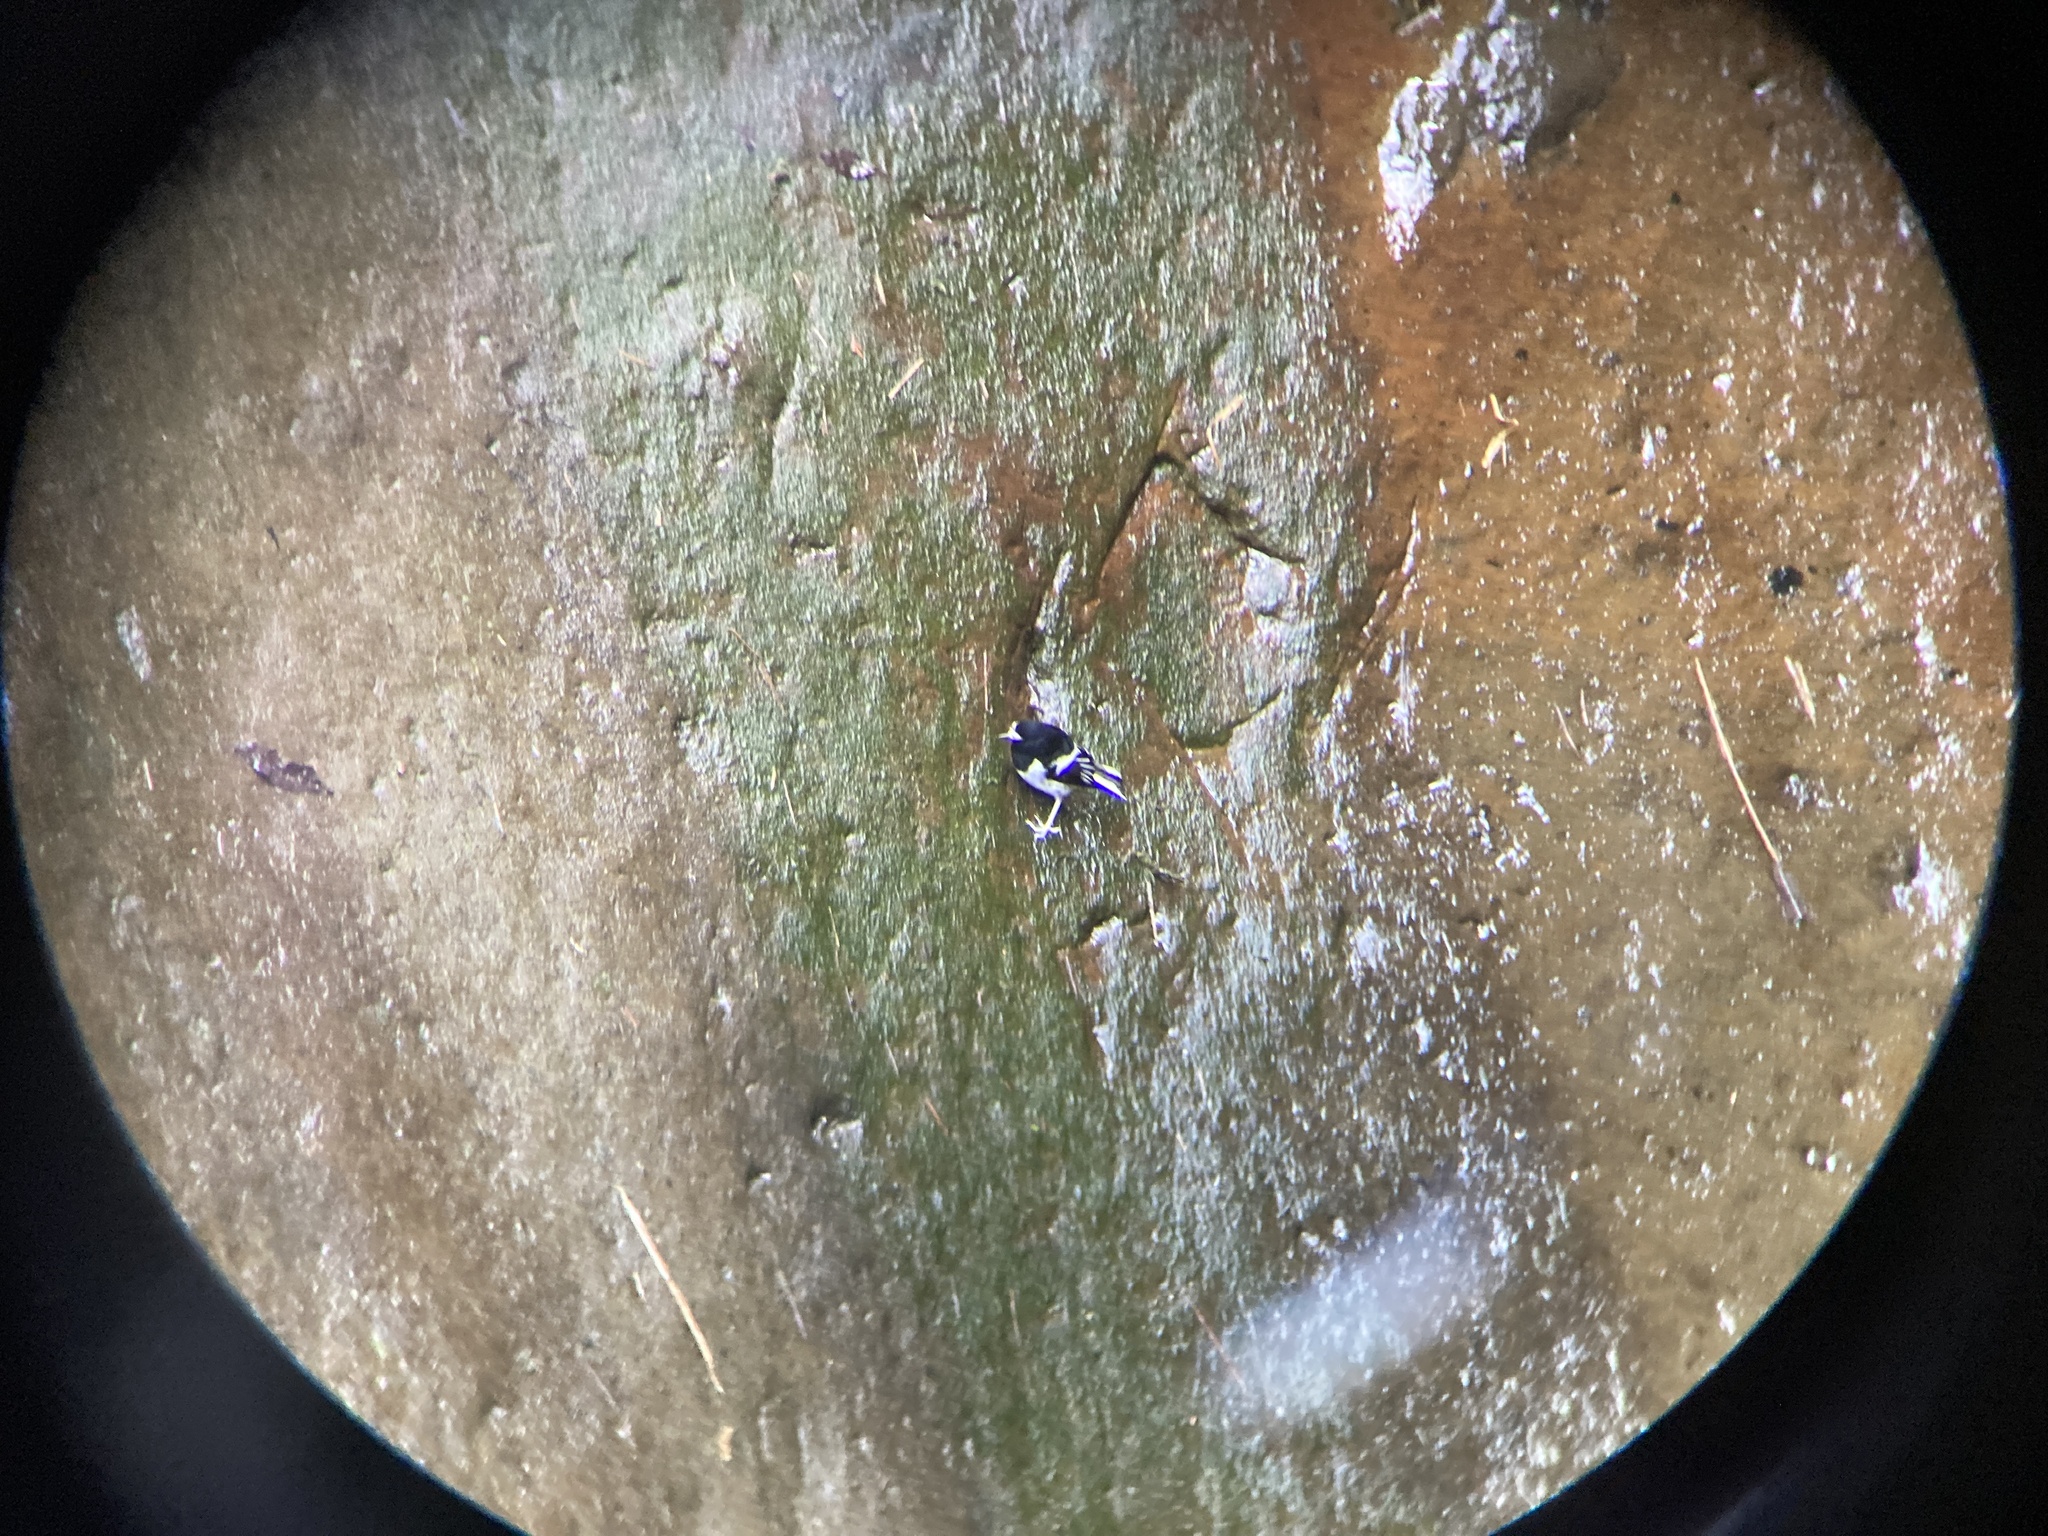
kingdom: Animalia
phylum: Chordata
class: Aves
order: Passeriformes
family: Muscicapidae
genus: Enicurus
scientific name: Enicurus scouleri
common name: Little forktail
